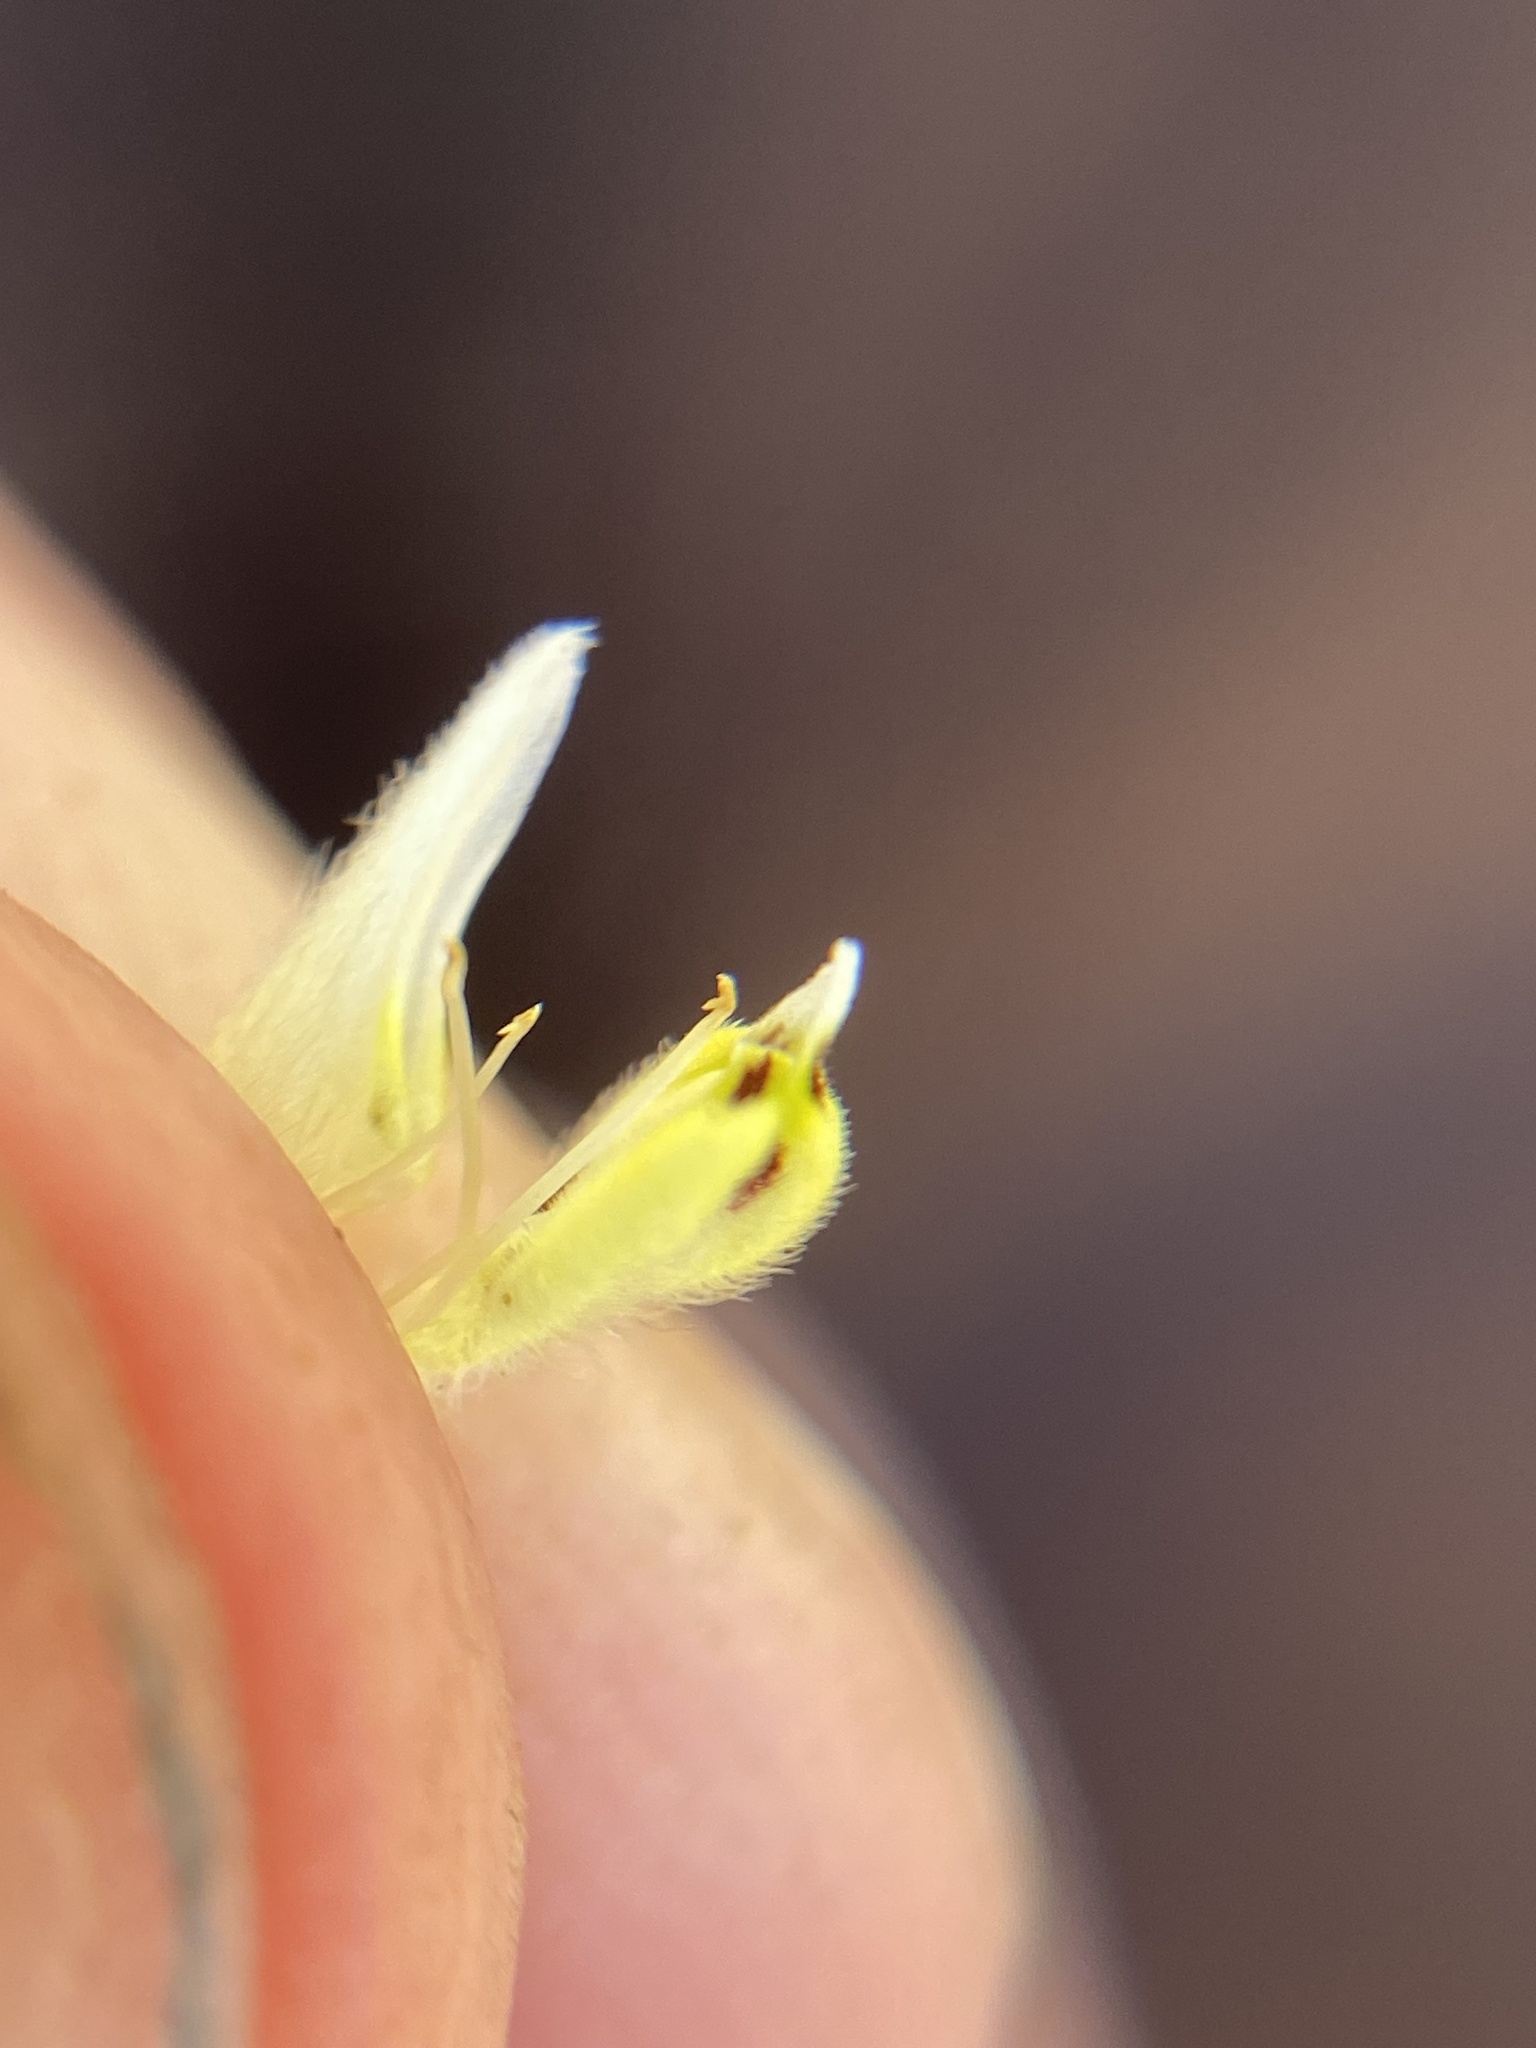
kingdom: Plantae
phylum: Tracheophyta
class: Magnoliopsida
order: Lamiales
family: Orobanchaceae
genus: Castilleja
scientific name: Castilleja attenuata
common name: Valley tassels
